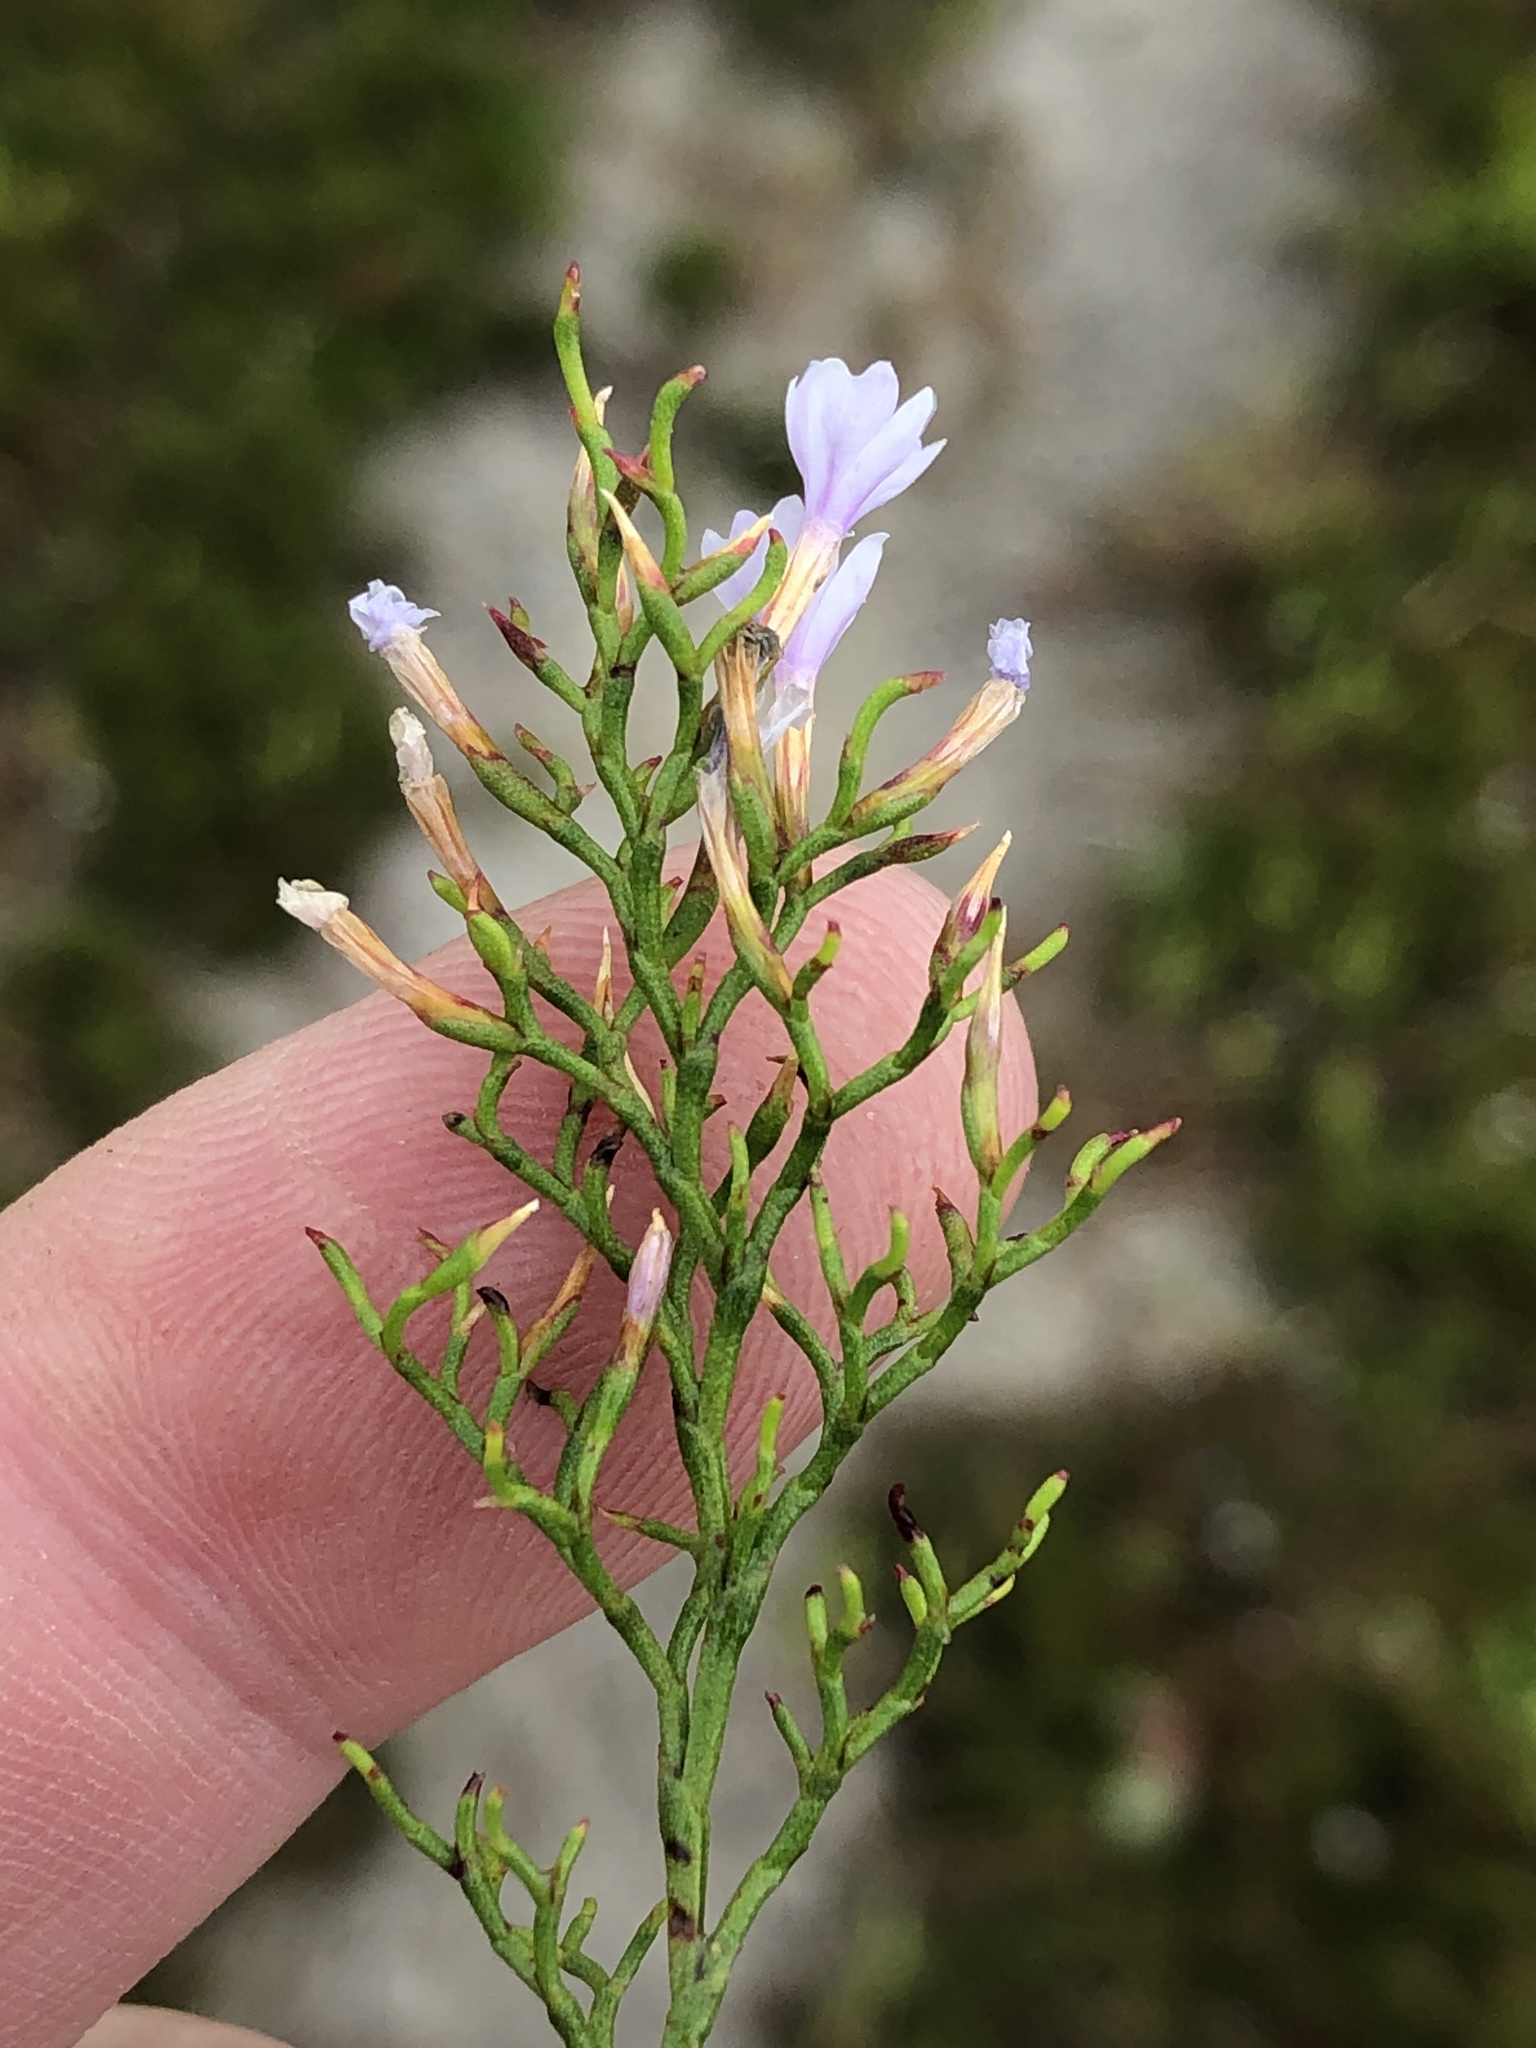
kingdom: Plantae
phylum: Tracheophyta
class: Magnoliopsida
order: Caryophyllales
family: Plumbaginaceae
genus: Limonium
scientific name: Limonium scabrum
